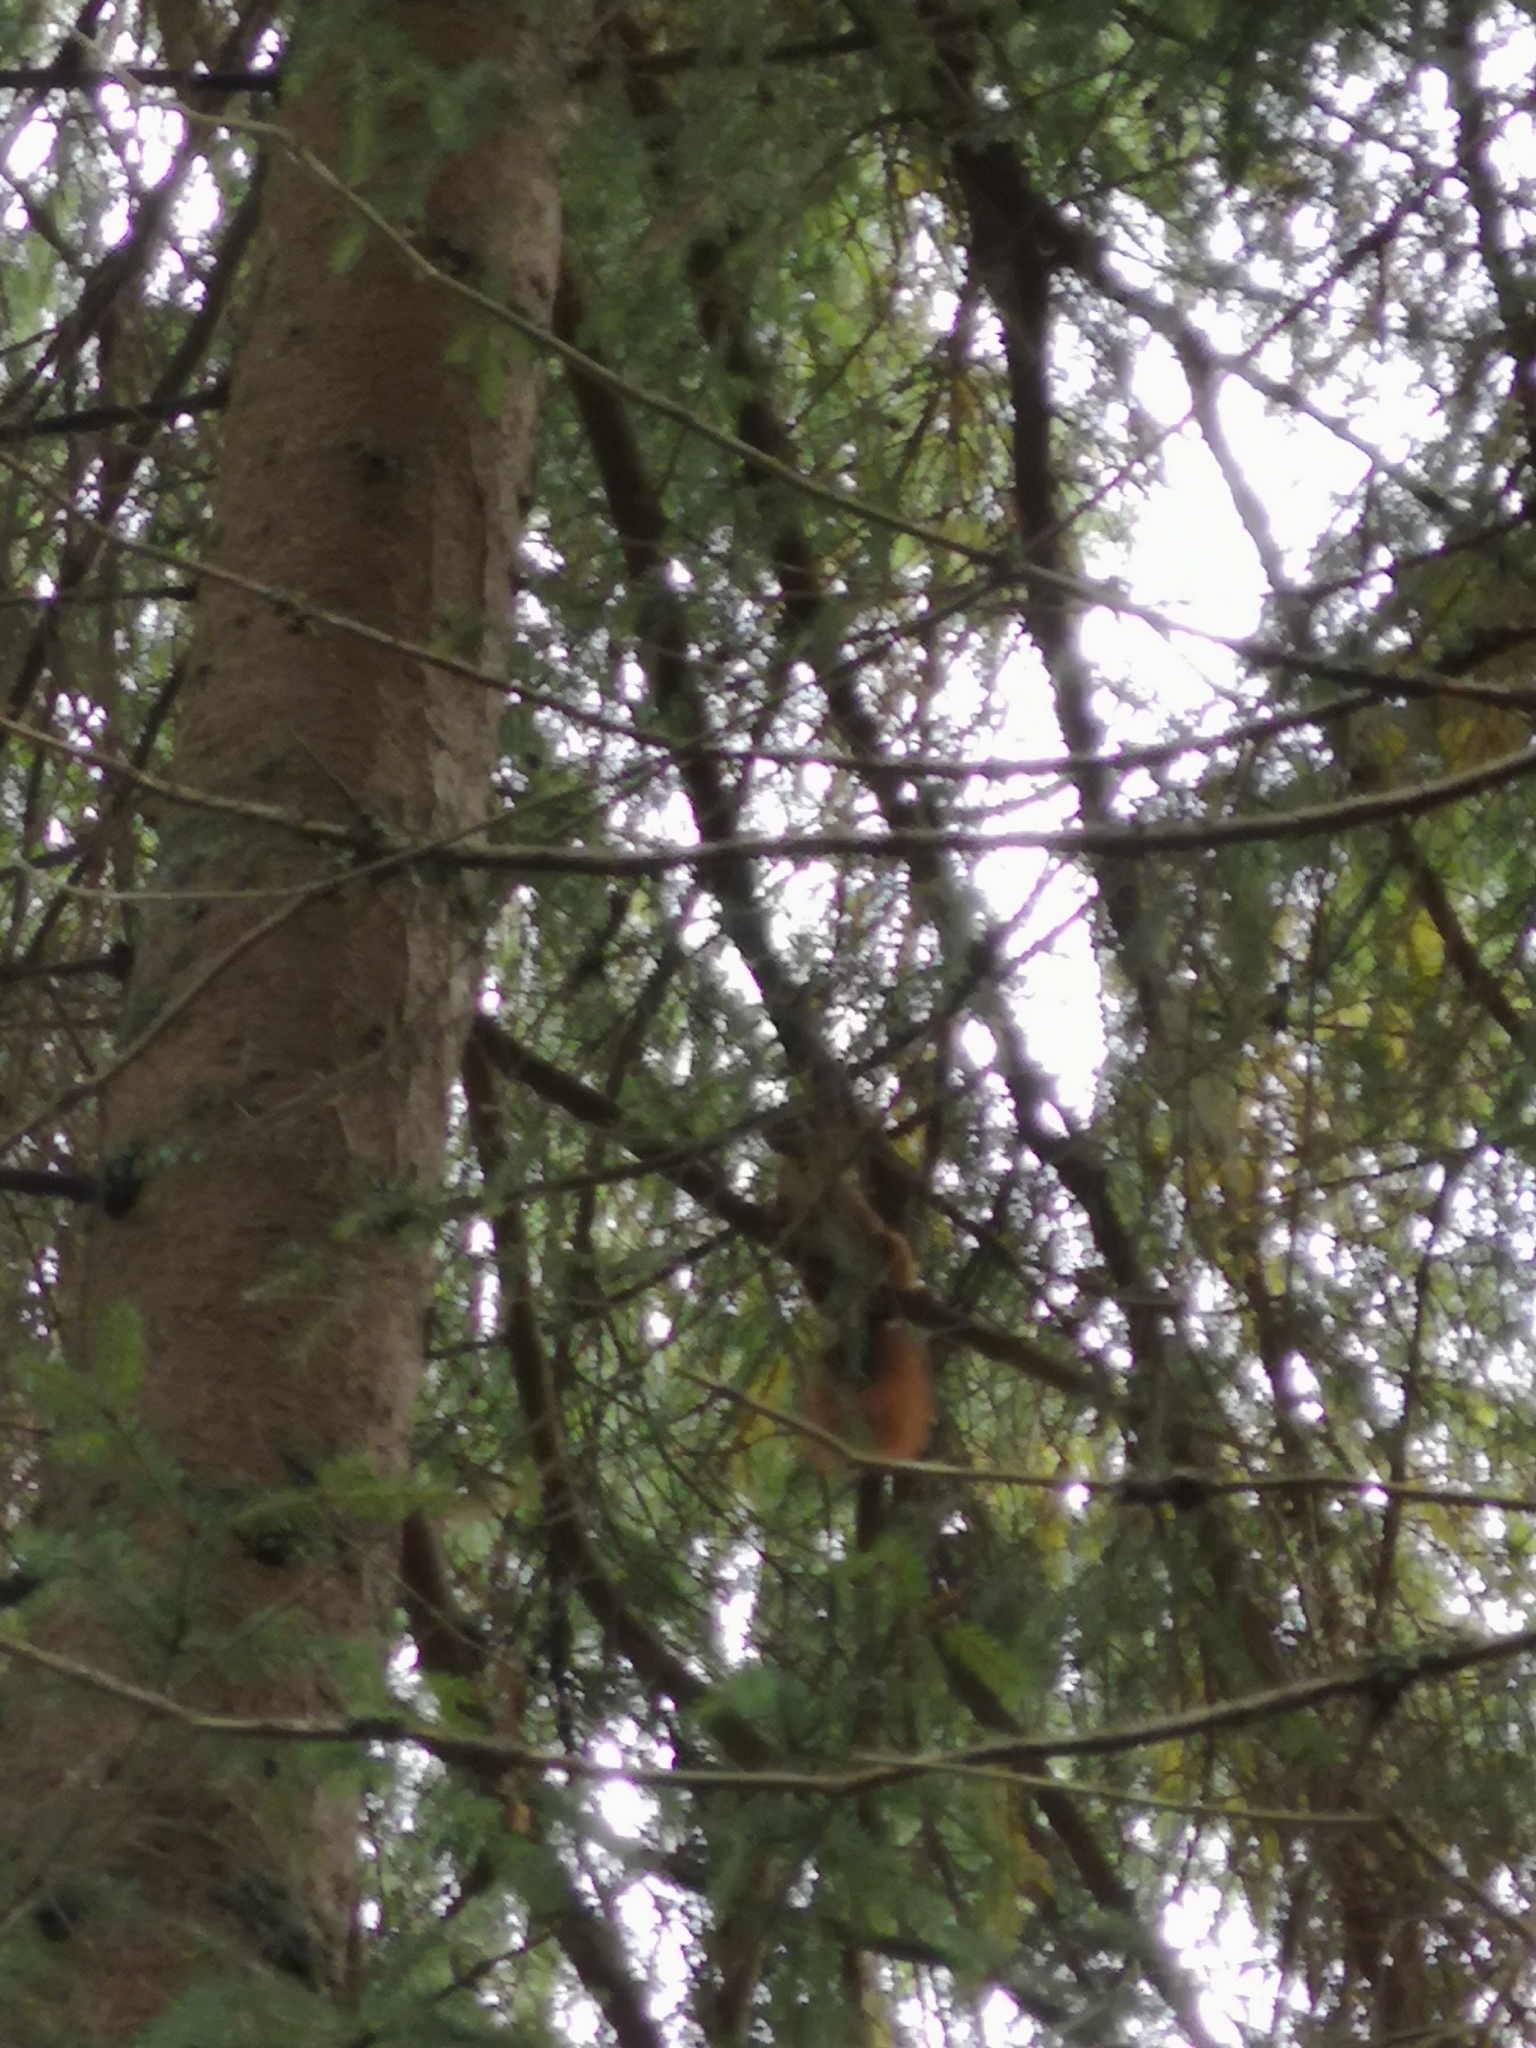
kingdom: Animalia
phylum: Chordata
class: Mammalia
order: Rodentia
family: Sciuridae
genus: Sciurus
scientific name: Sciurus vulgaris
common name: Eurasian red squirrel
